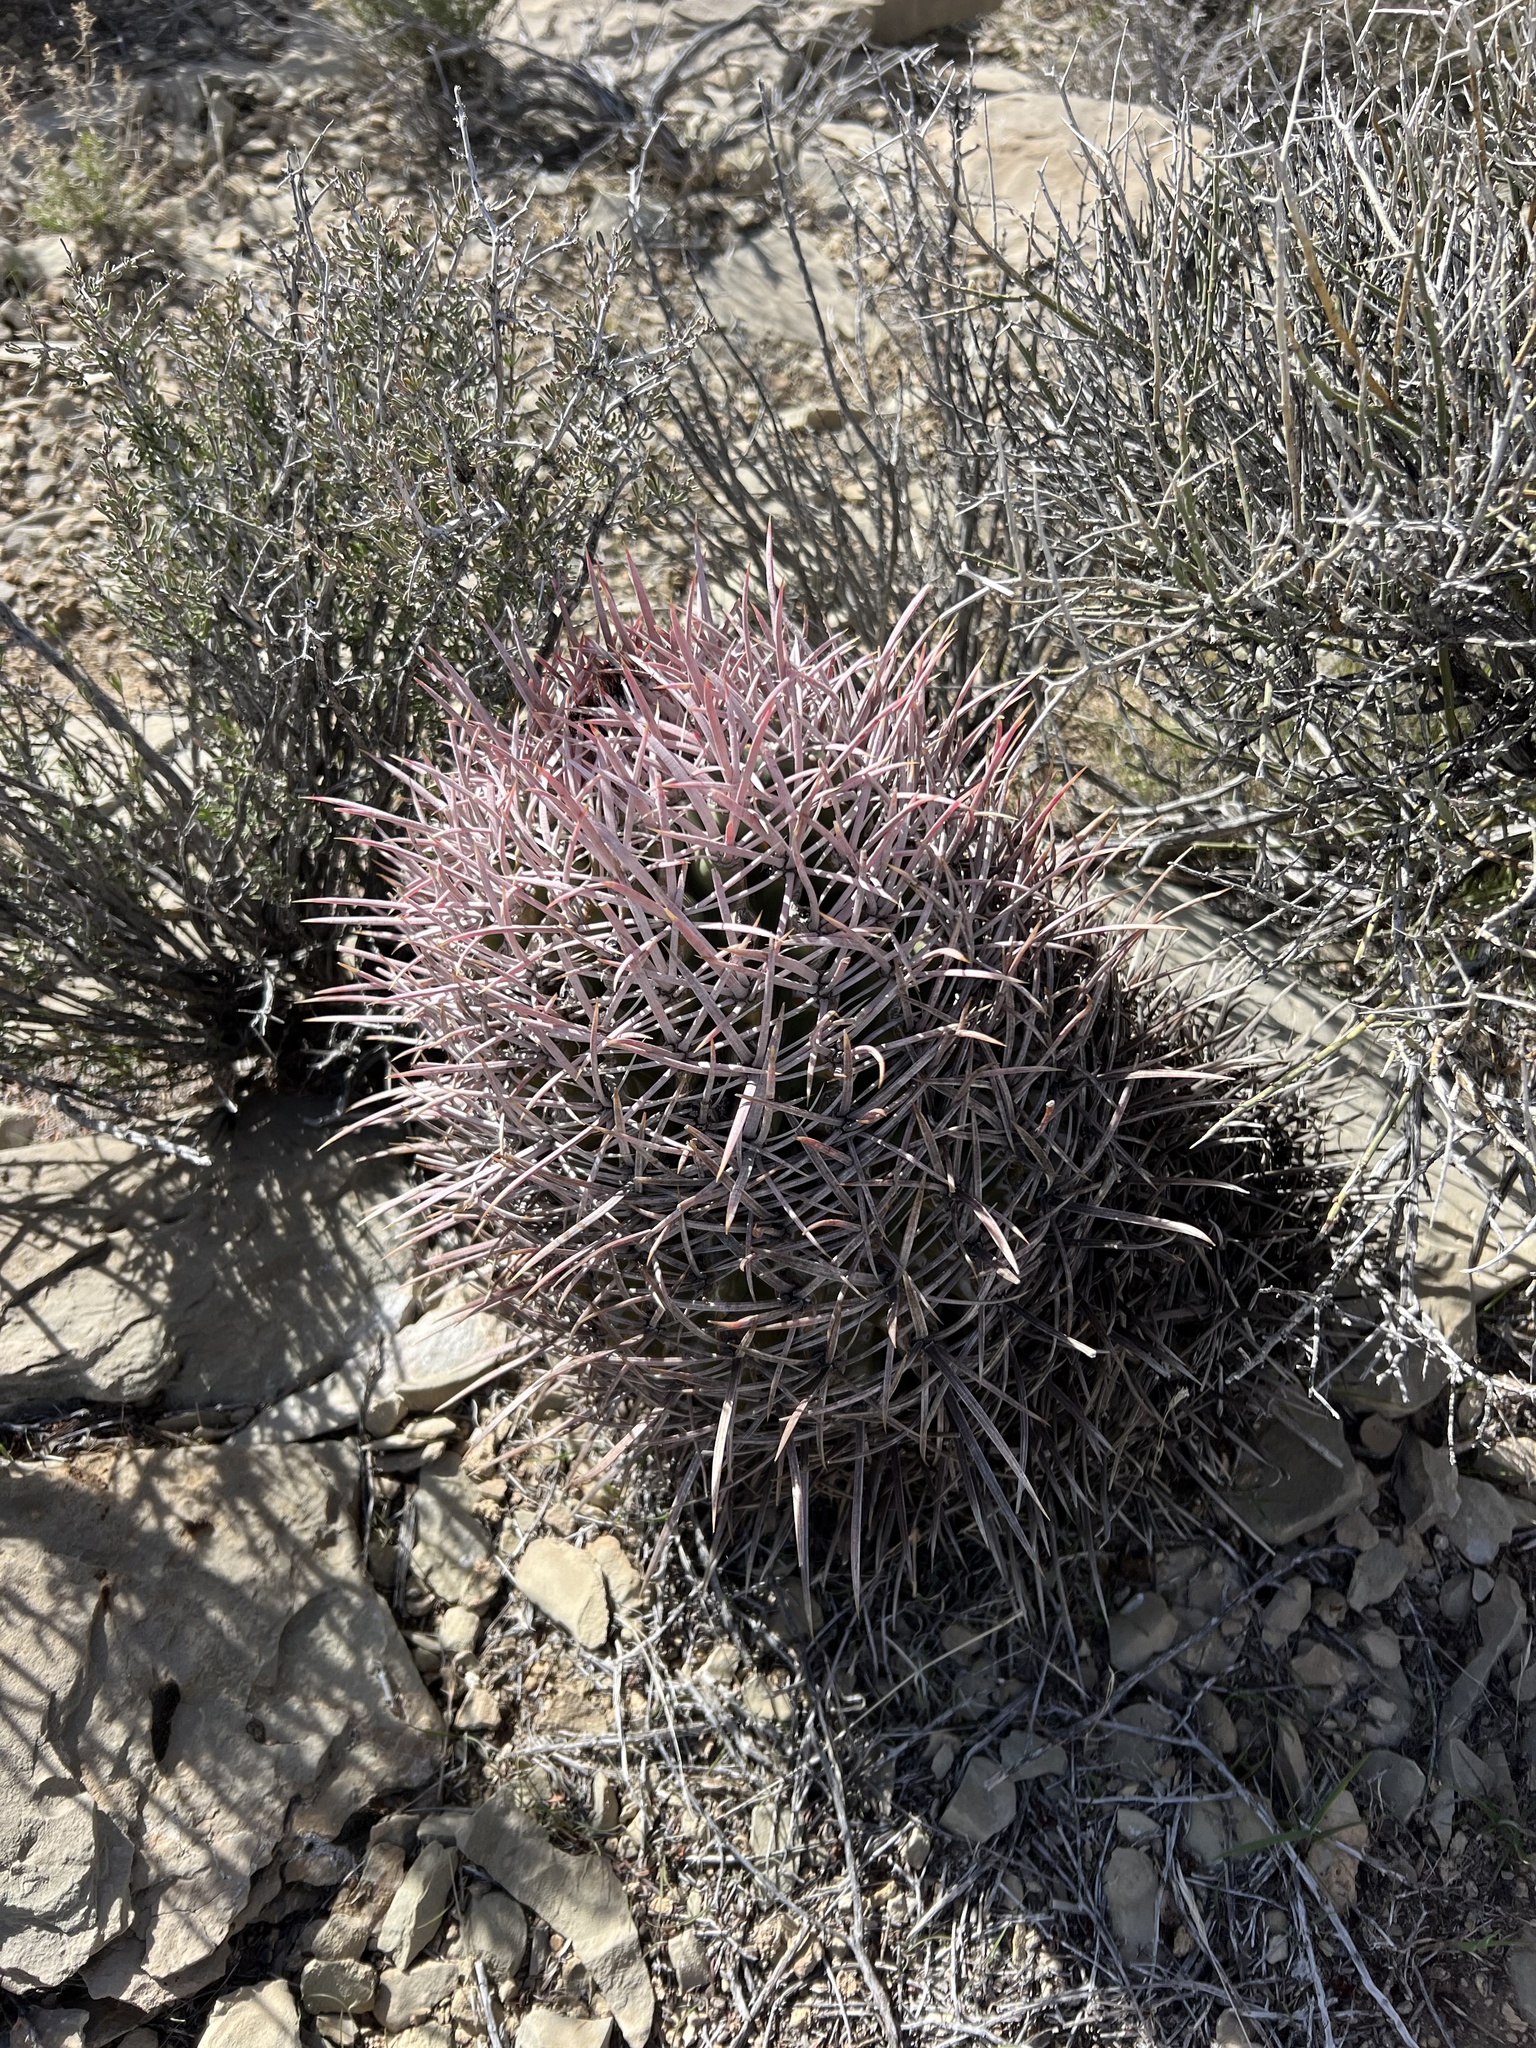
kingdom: Plantae
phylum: Tracheophyta
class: Magnoliopsida
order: Caryophyllales
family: Cactaceae
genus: Echinocactus
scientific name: Echinocactus polycephalus
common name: Cottontop cactus
